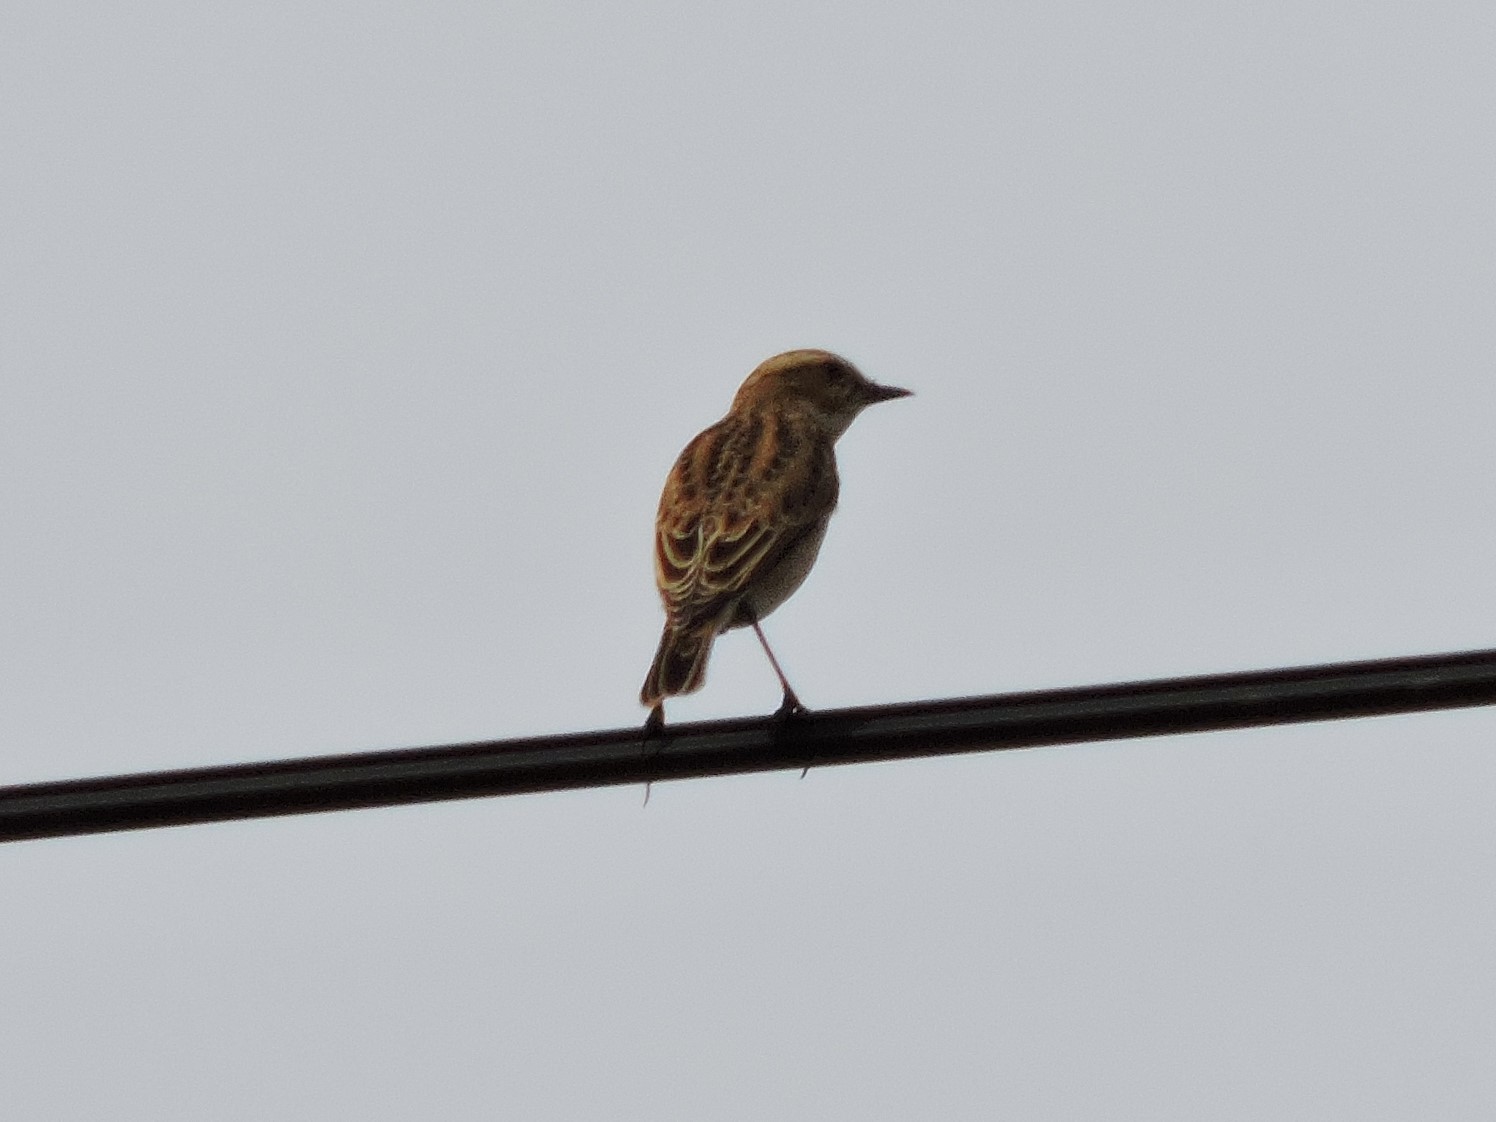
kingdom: Animalia
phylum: Chordata
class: Aves
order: Passeriformes
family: Muscicapidae
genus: Saxicola
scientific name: Saxicola rubetra
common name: Whinchat
